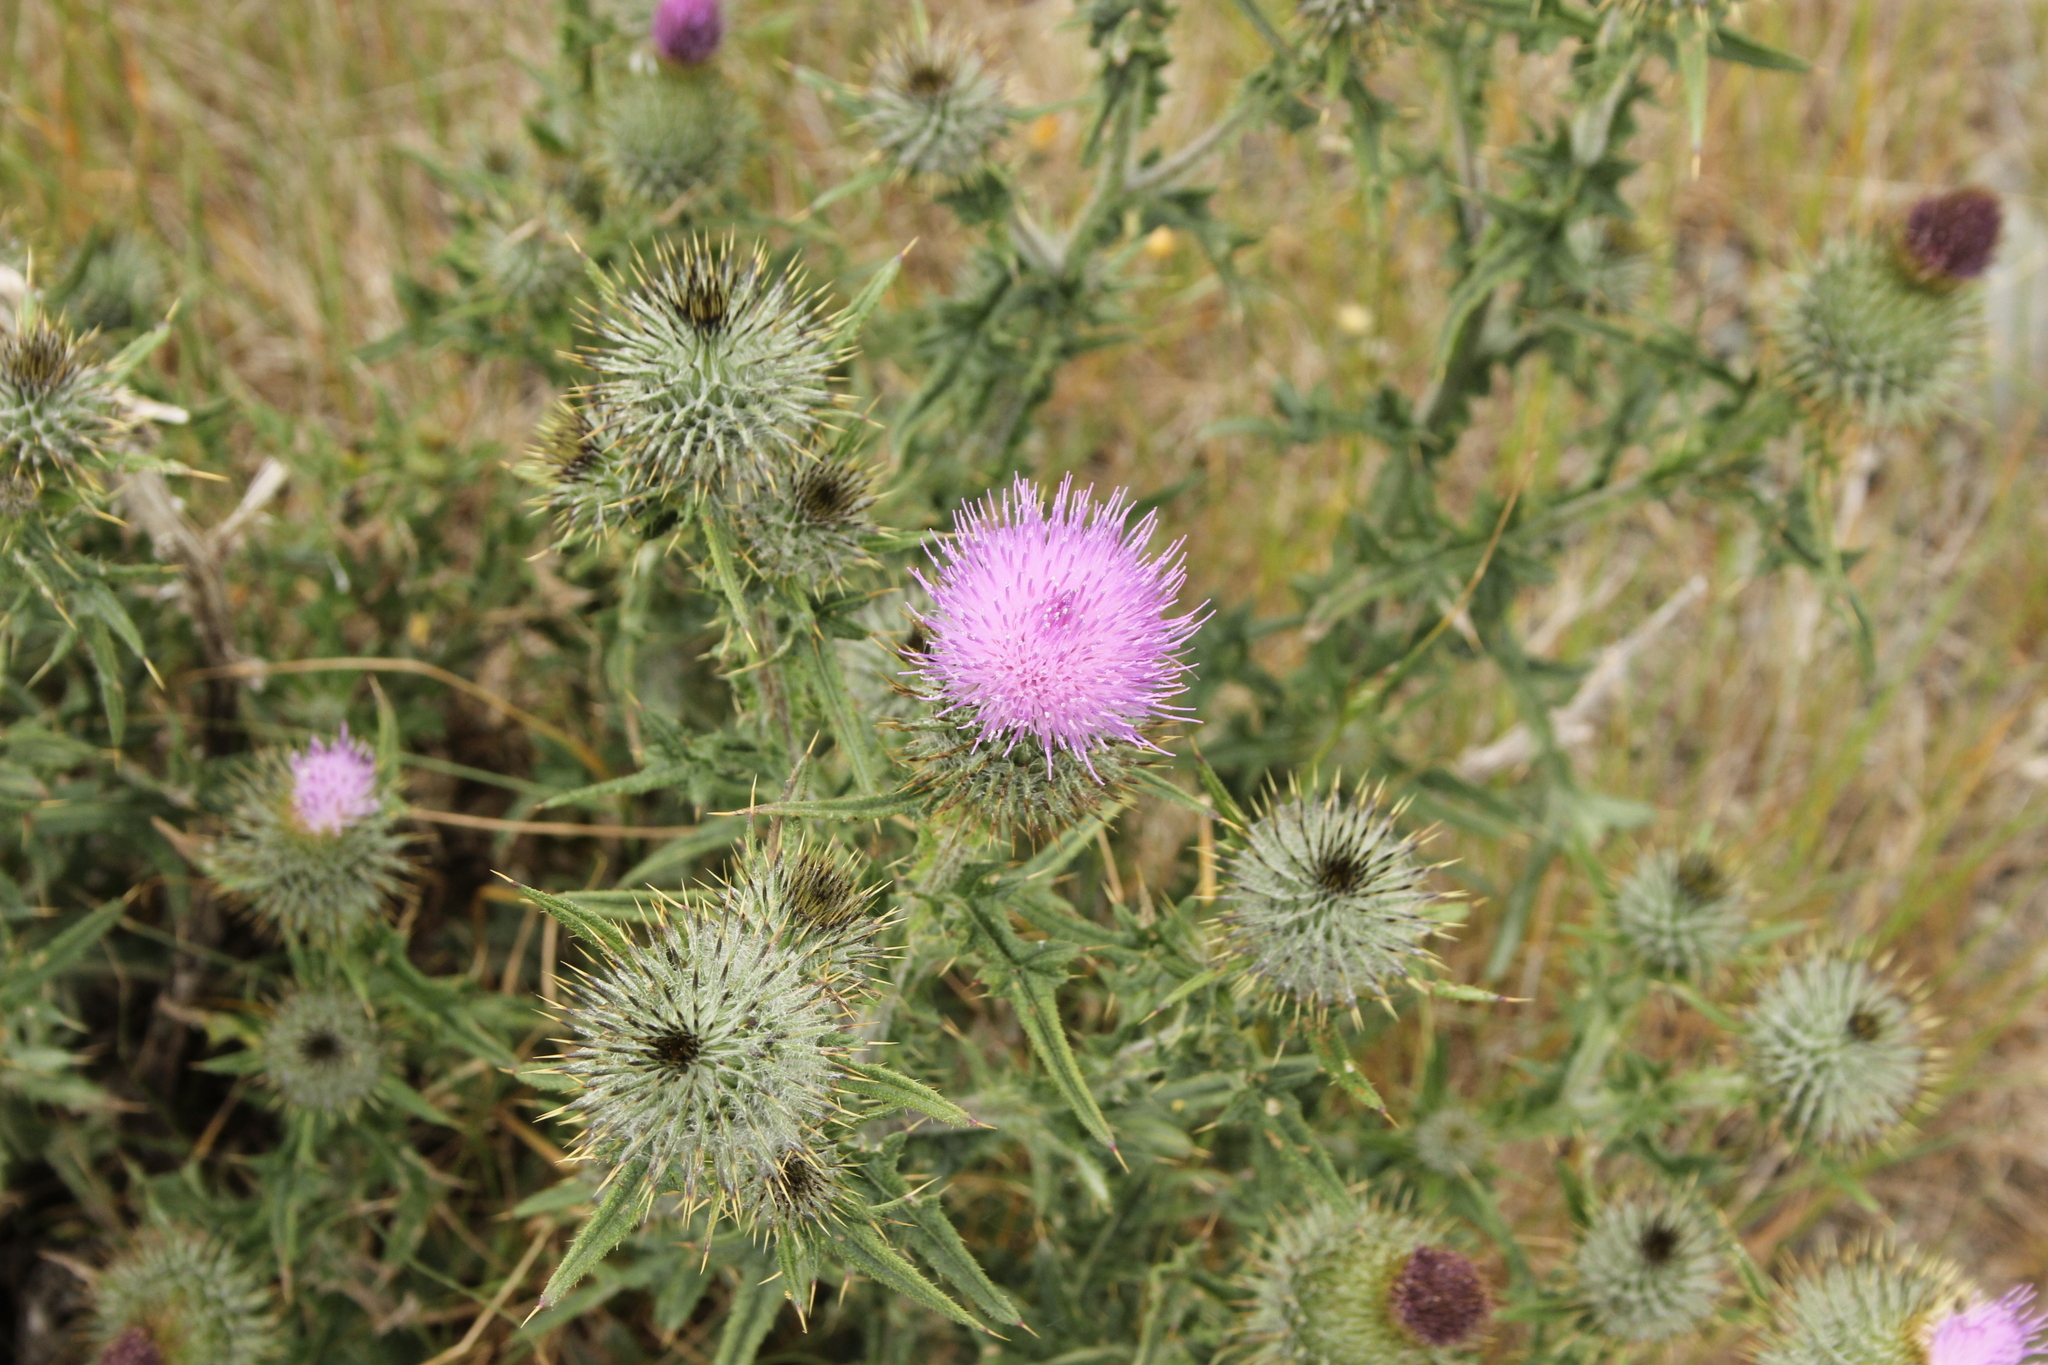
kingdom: Plantae
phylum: Tracheophyta
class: Magnoliopsida
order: Asterales
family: Asteraceae
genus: Cirsium
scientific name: Cirsium vulgare
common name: Bull thistle
